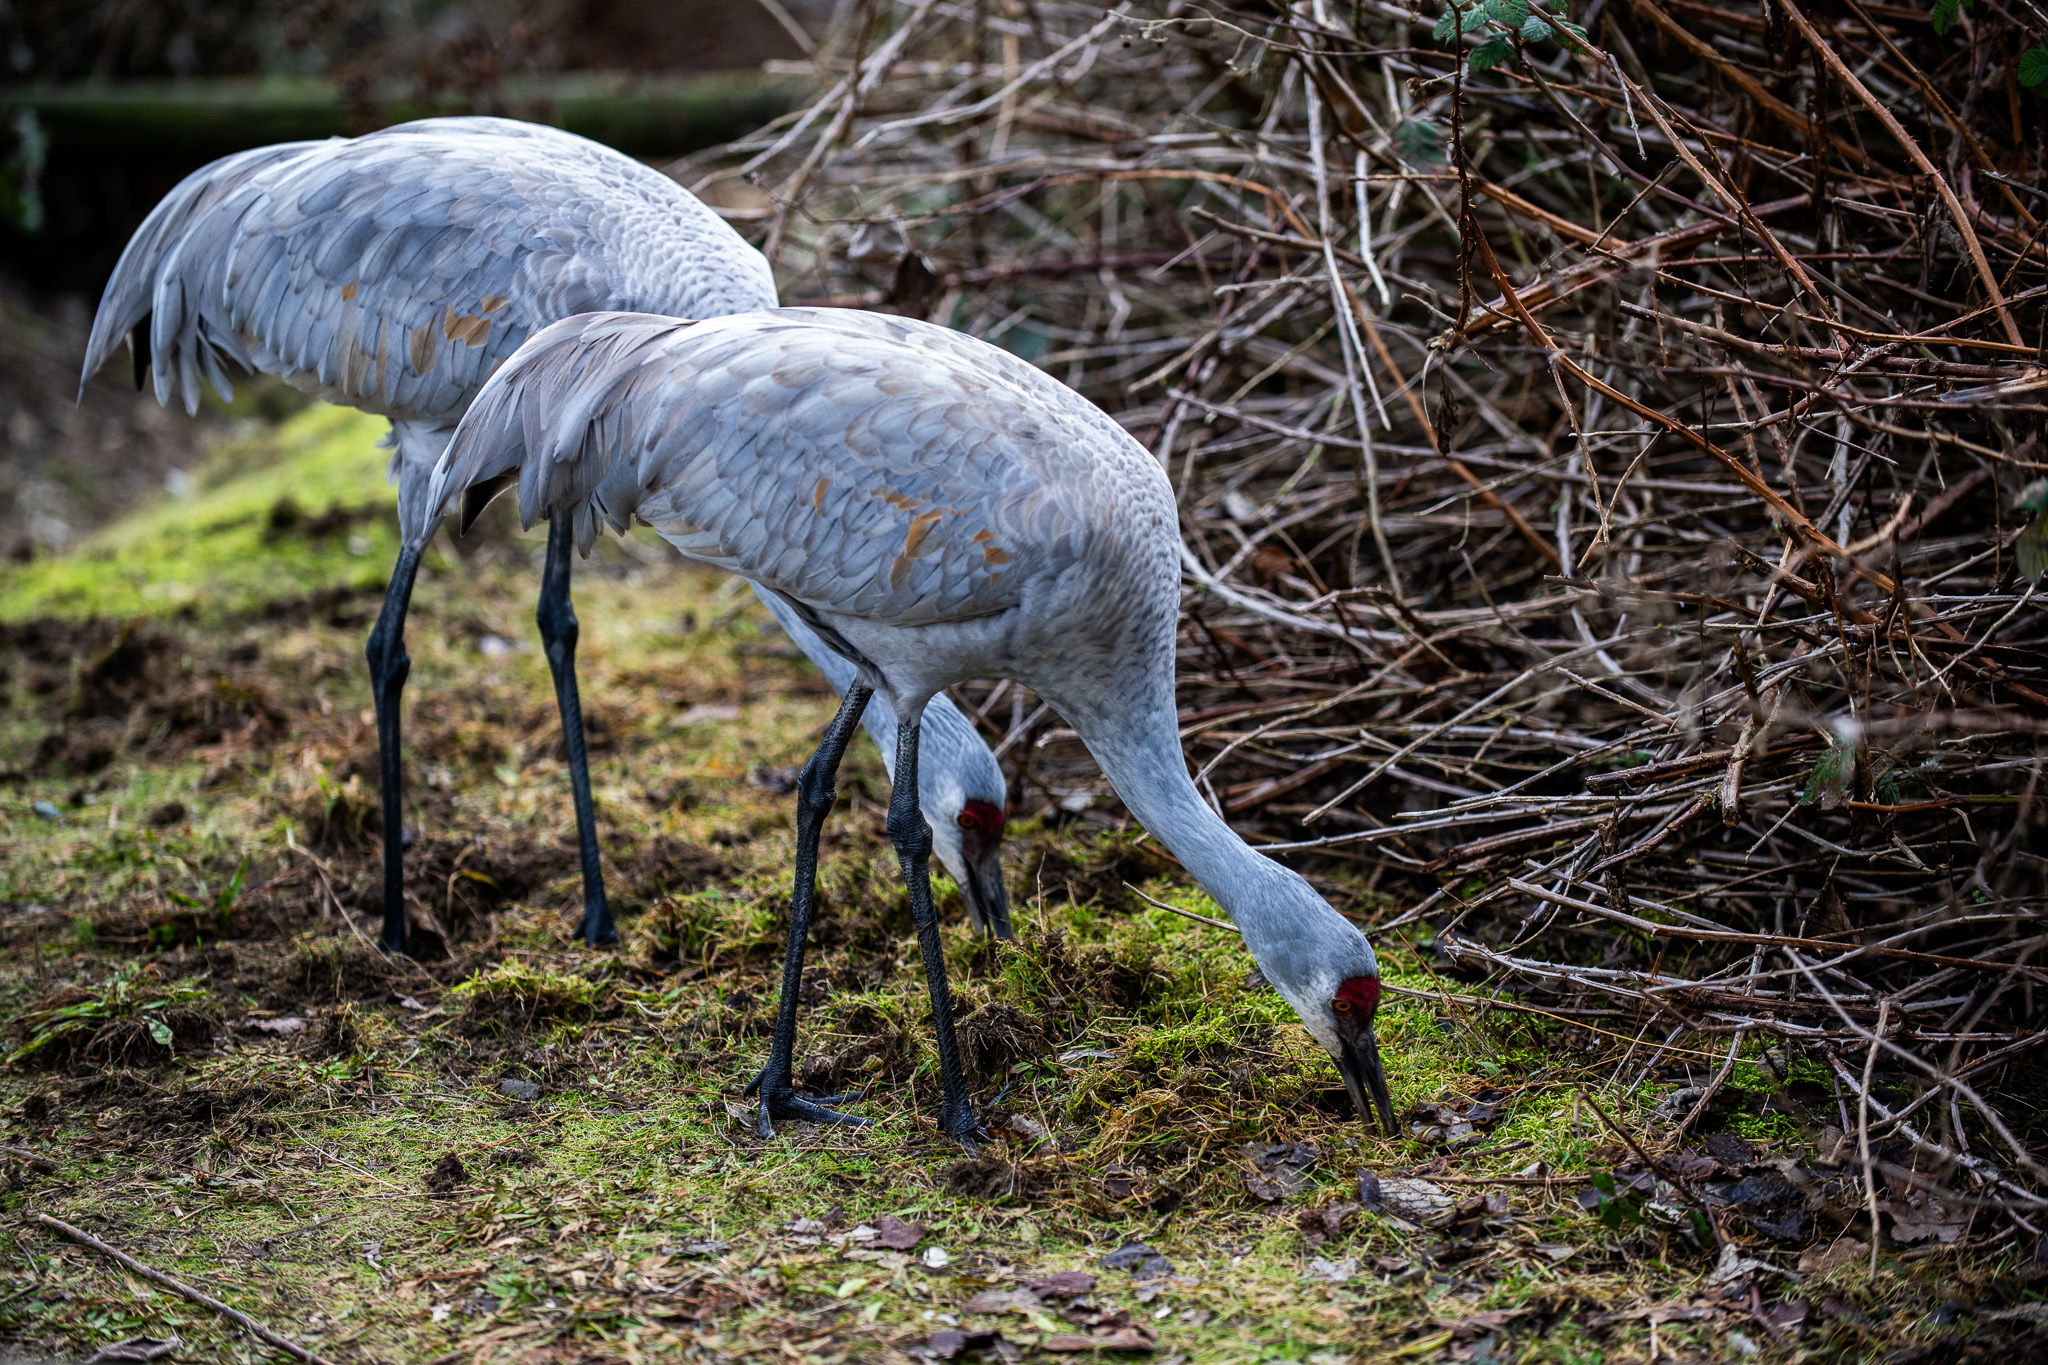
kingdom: Animalia
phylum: Chordata
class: Aves
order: Gruiformes
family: Gruidae
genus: Grus
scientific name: Grus canadensis
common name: Sandhill crane
